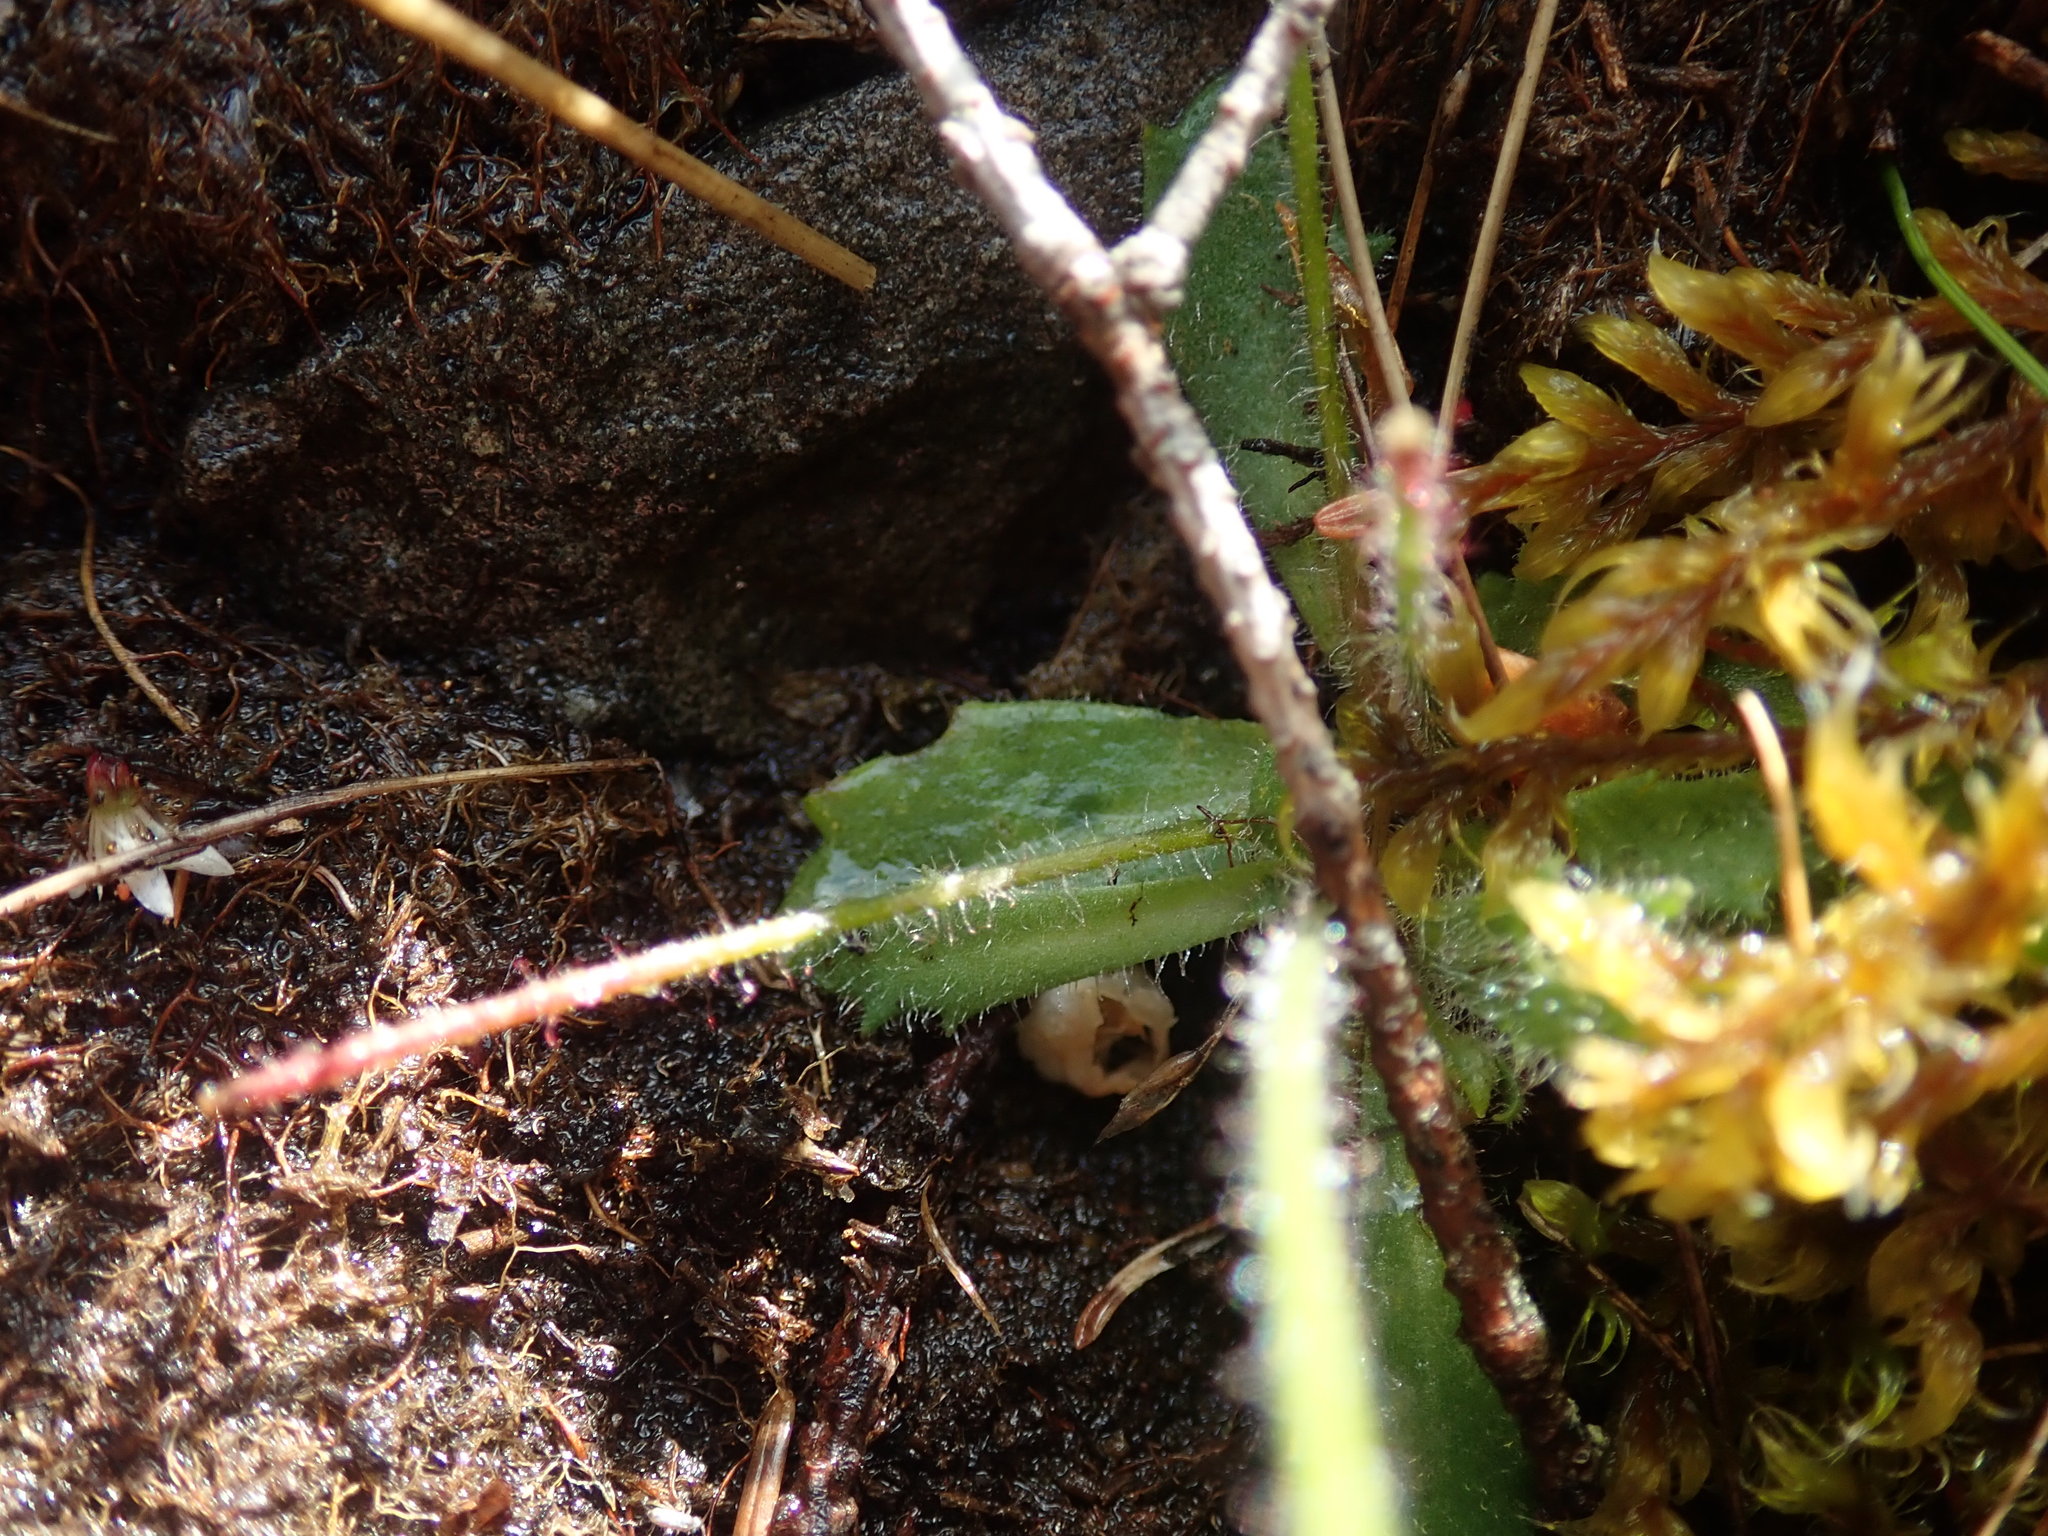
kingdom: Plantae
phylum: Tracheophyta
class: Magnoliopsida
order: Saxifragales
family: Saxifragaceae
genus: Micranthes
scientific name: Micranthes ferruginea
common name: Rusty saxifrage
